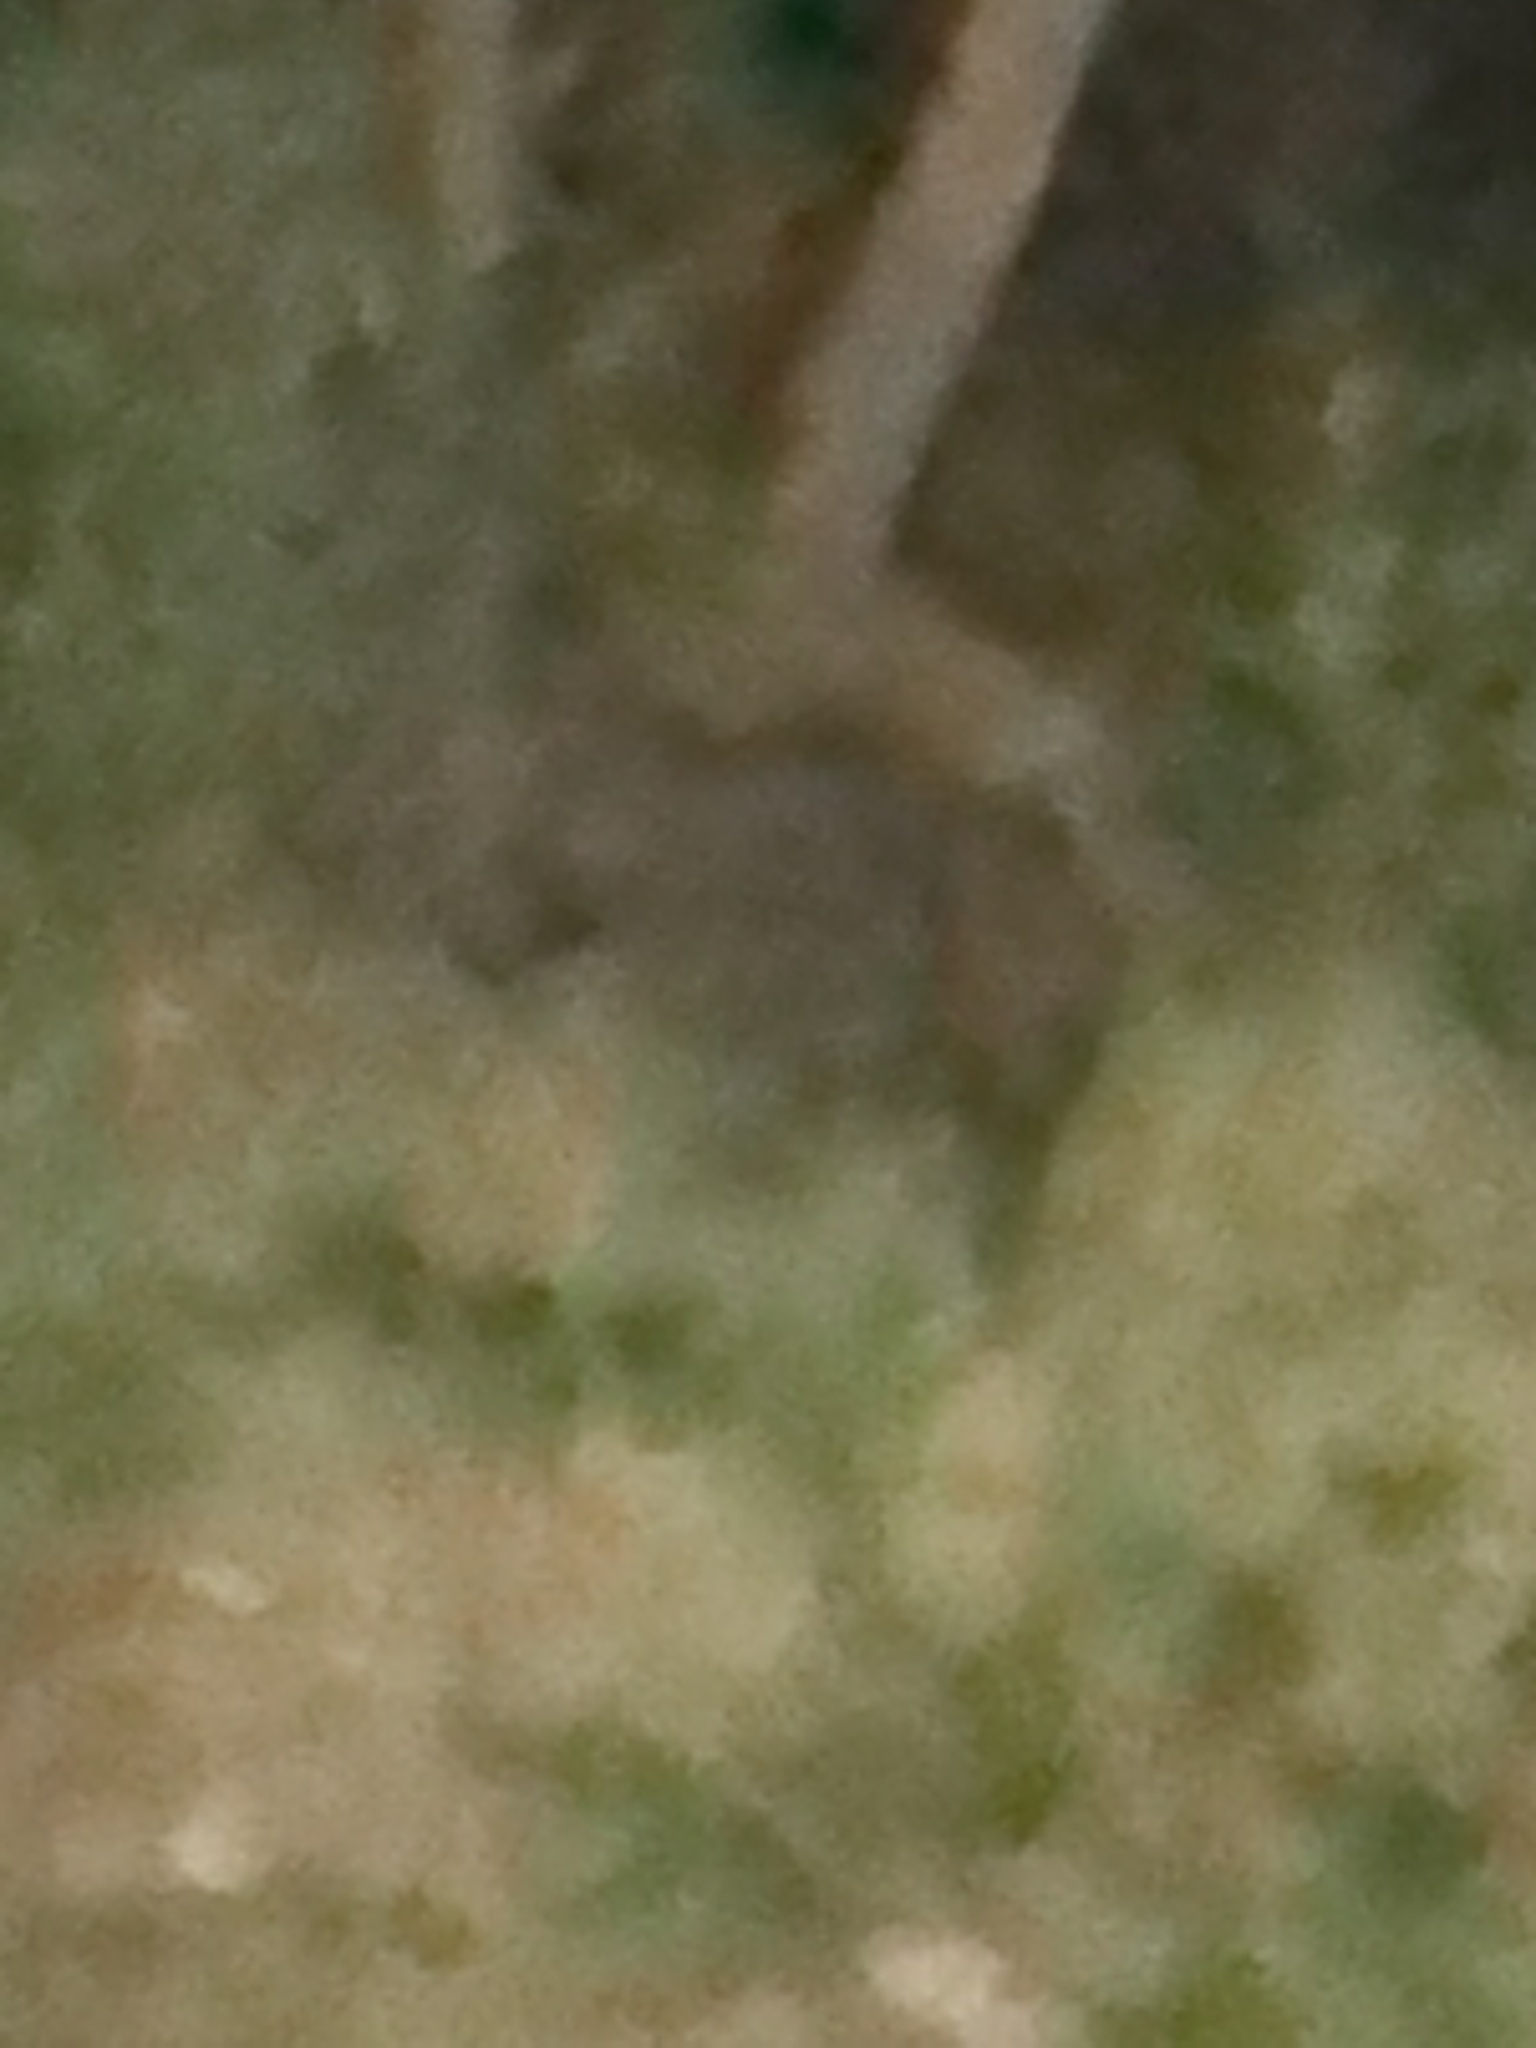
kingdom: Animalia
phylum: Chordata
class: Mammalia
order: Artiodactyla
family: Suidae
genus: Sus
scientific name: Sus scrofa
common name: Wild boar
